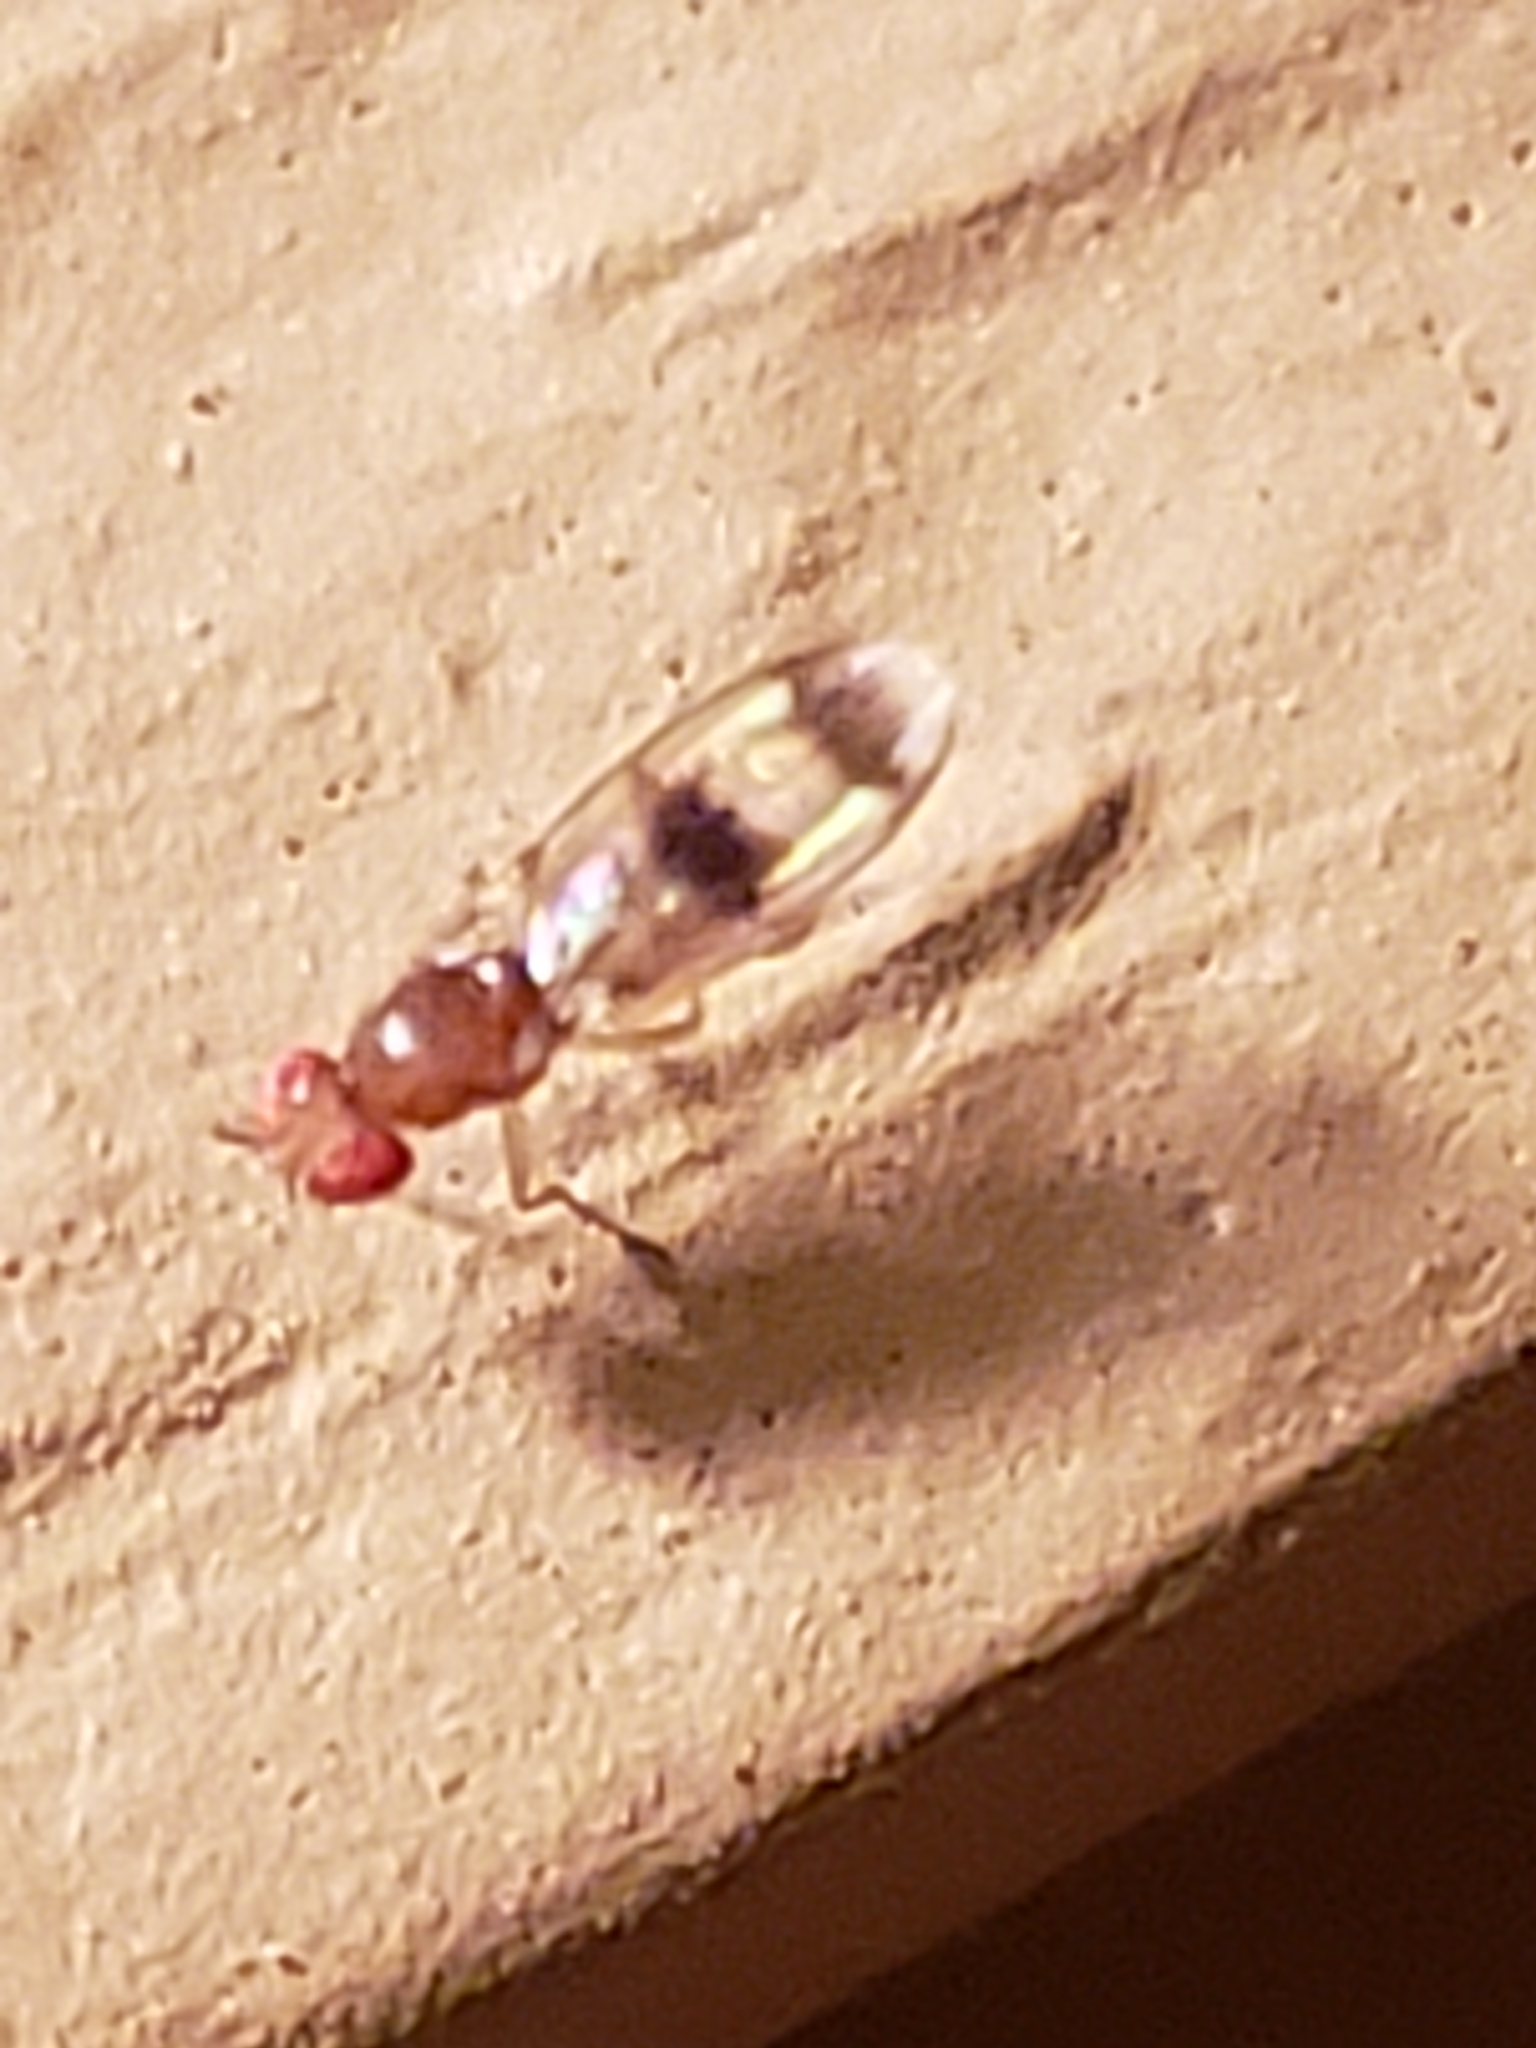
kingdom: Animalia
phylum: Arthropoda
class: Insecta
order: Diptera
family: Drosophilidae
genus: Chymomyza
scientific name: Chymomyza amoena
